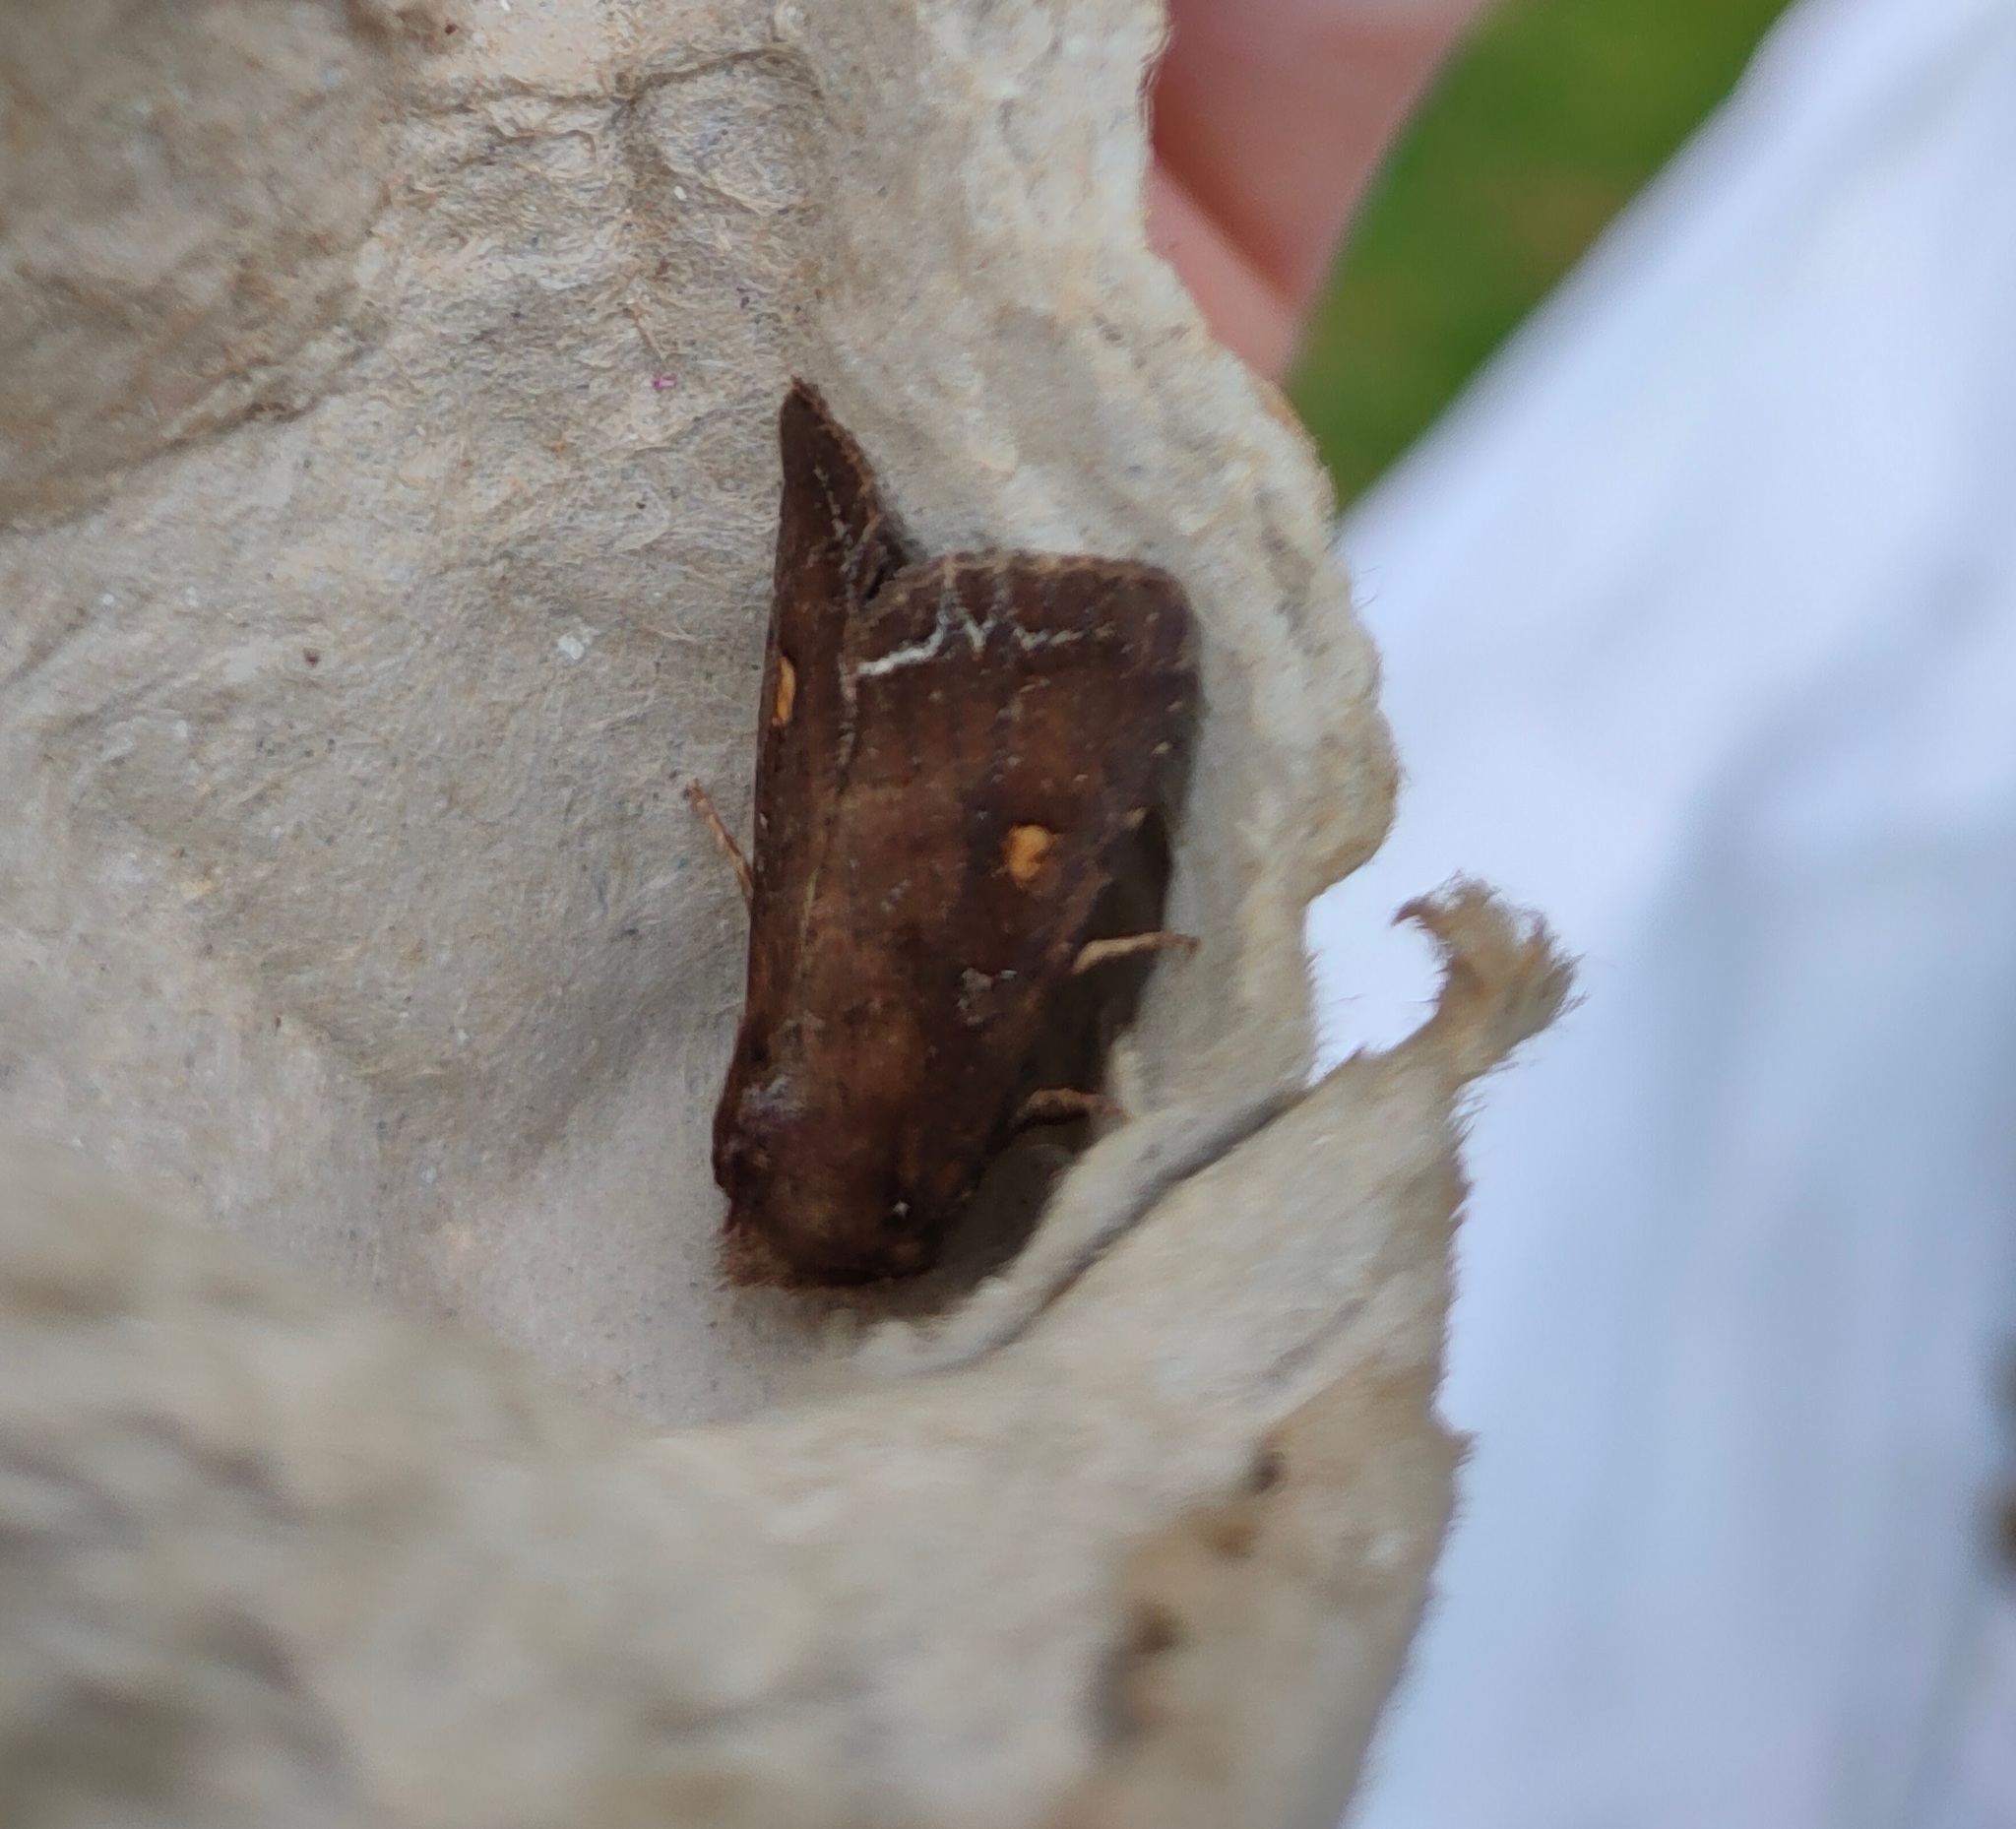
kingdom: Animalia
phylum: Arthropoda
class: Insecta
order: Lepidoptera
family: Noctuidae
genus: Lacanobia
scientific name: Lacanobia oleracea
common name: Bright-line brown-eye
